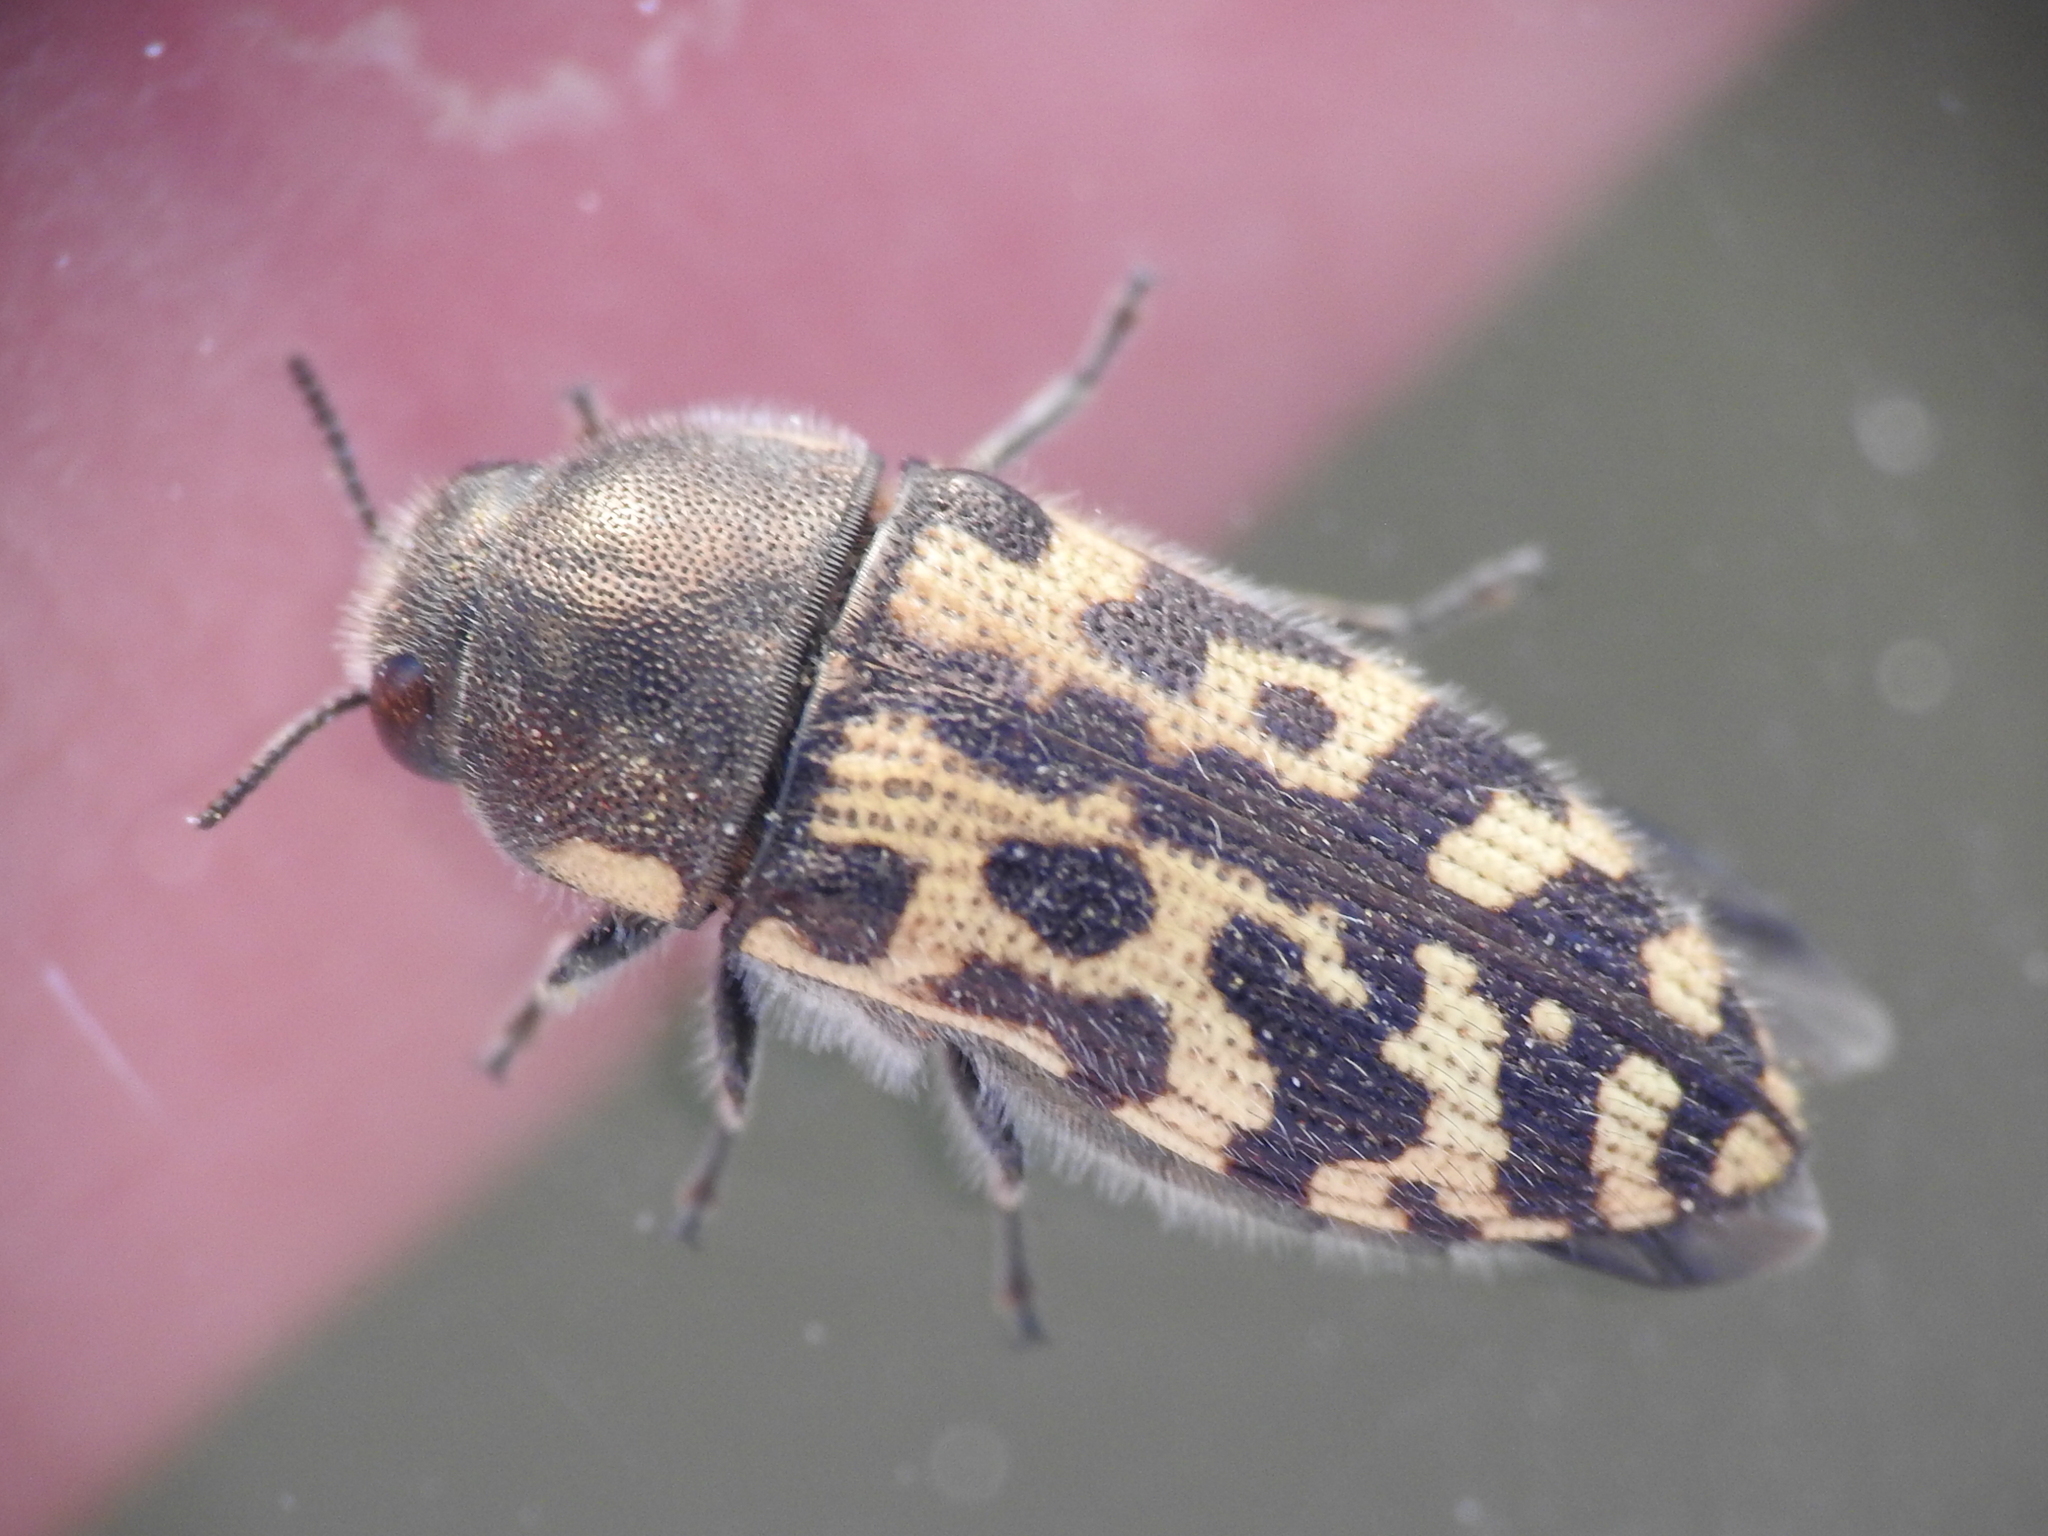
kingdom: Animalia
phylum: Arthropoda
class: Insecta
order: Coleoptera
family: Buprestidae
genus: Acmaeodera
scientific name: Acmaeodera mixta
